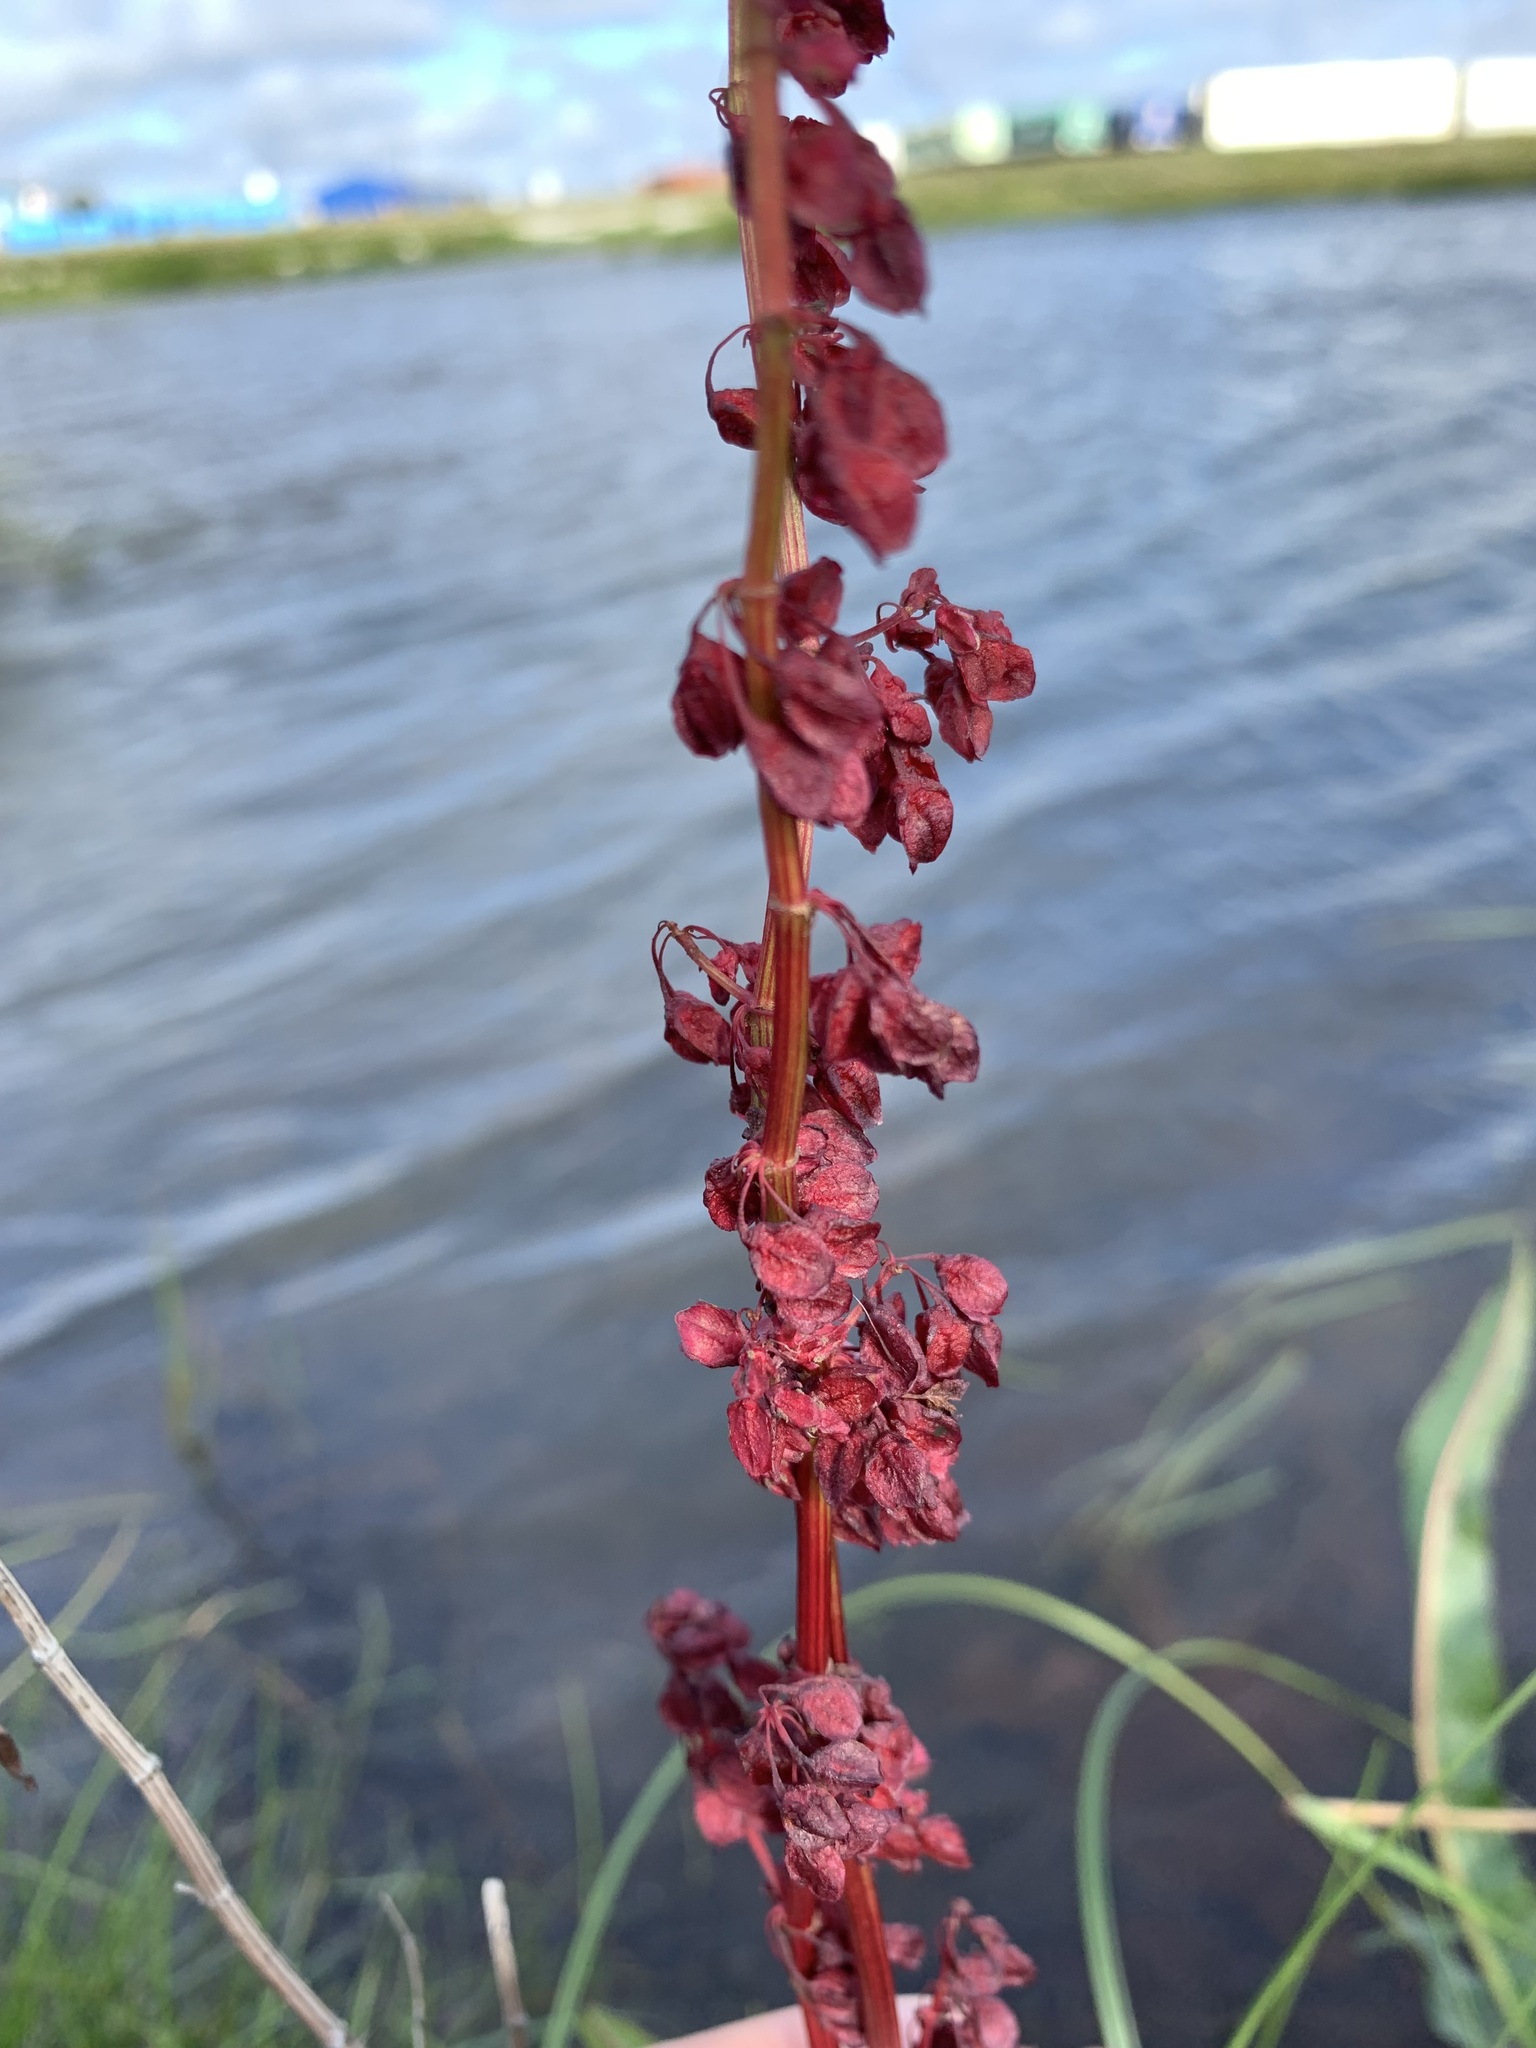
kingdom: Plantae
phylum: Tracheophyta
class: Magnoliopsida
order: Caryophyllales
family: Polygonaceae
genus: Rumex
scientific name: Rumex arcticus
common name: Arctic dock
